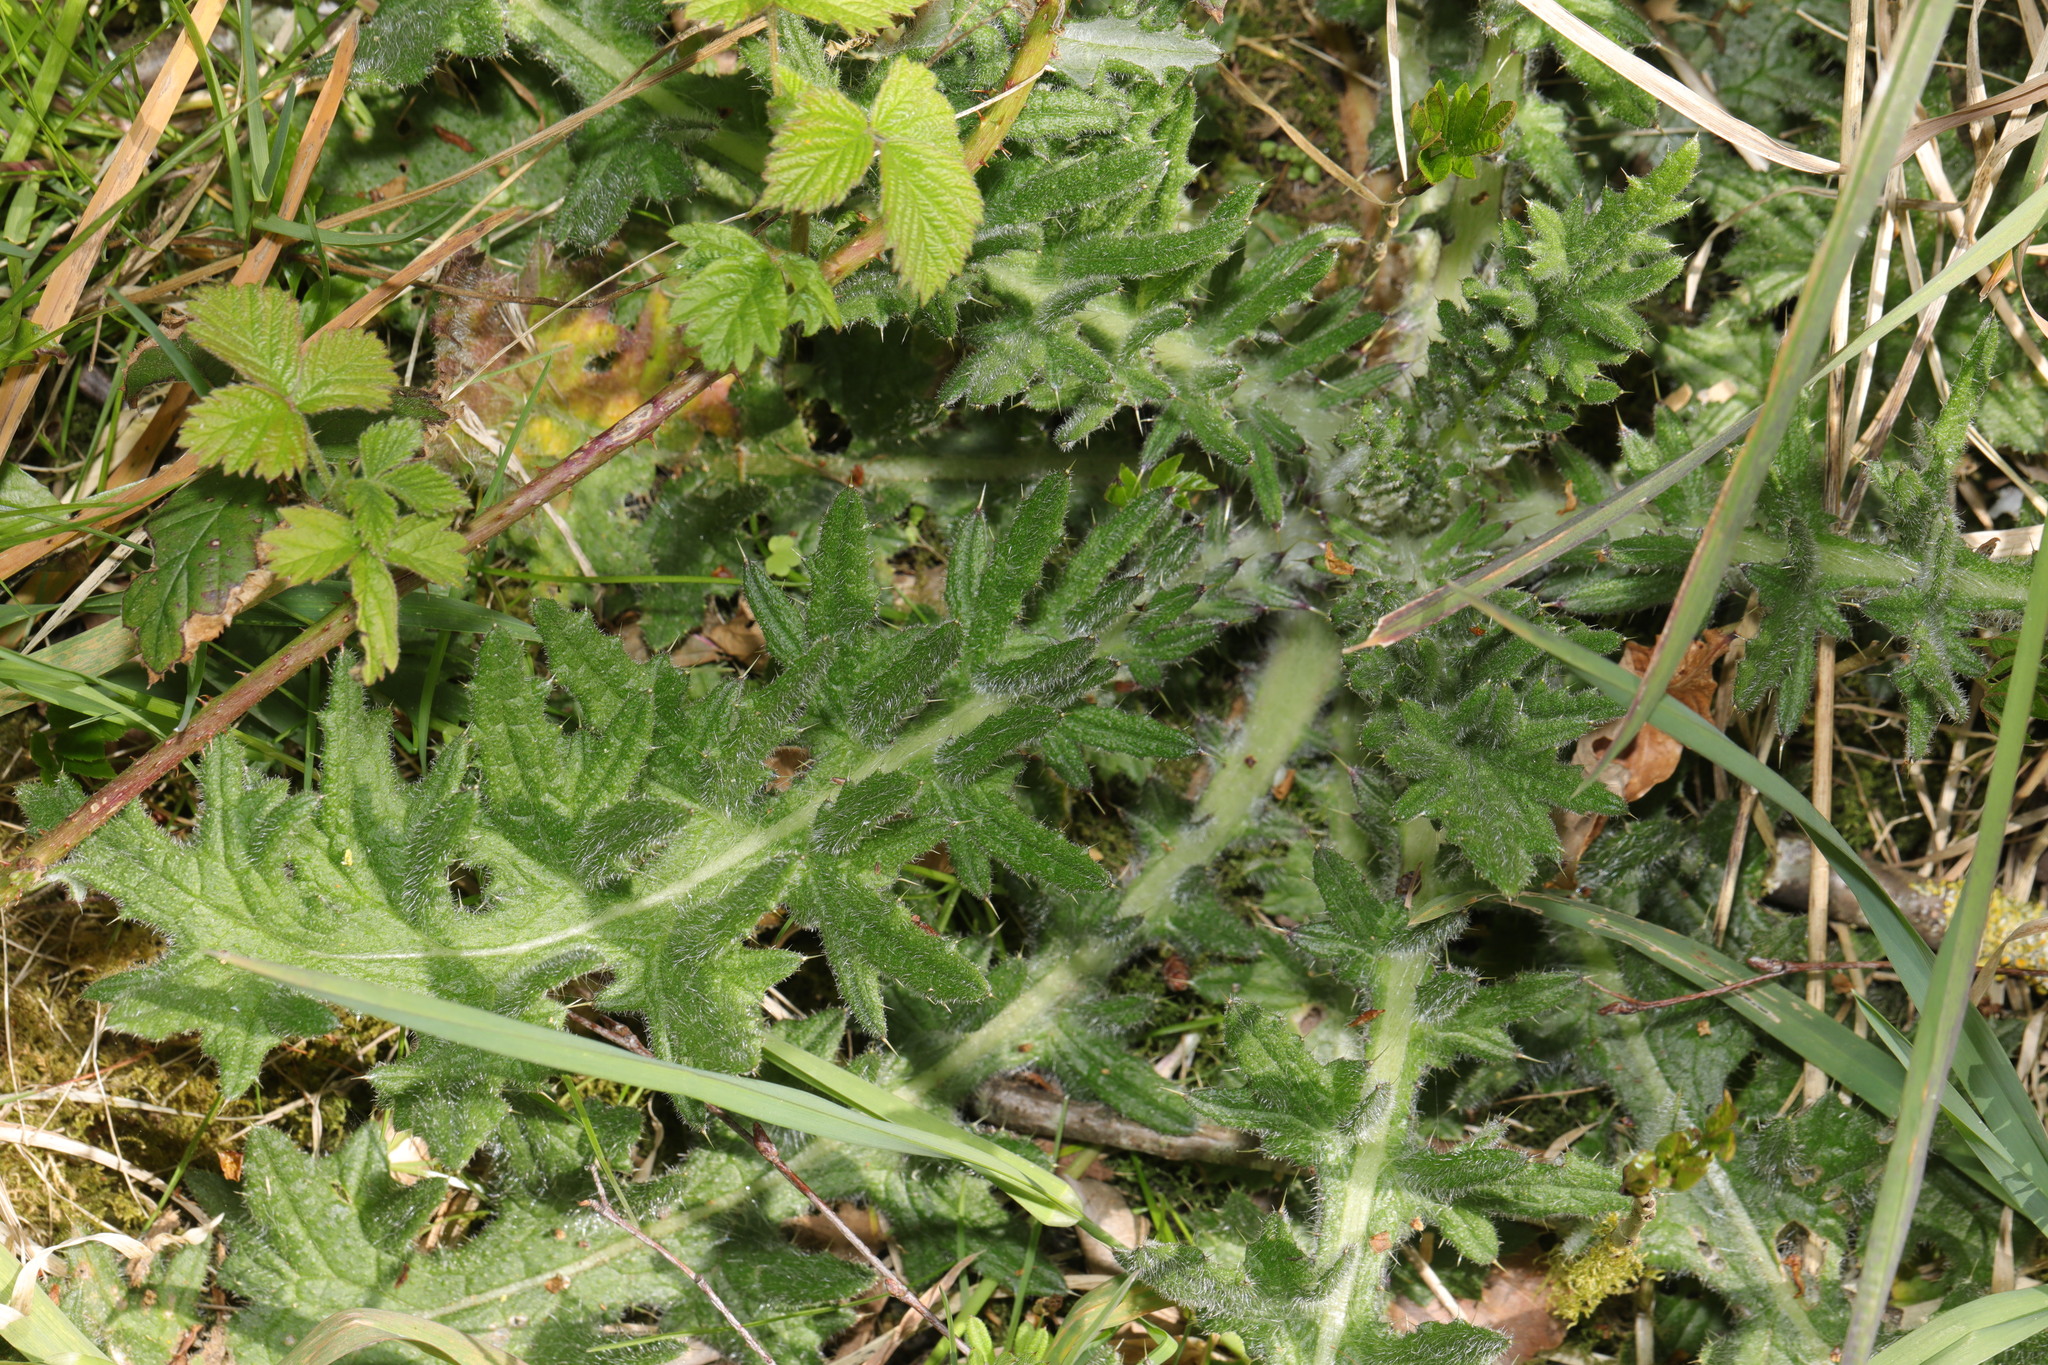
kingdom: Plantae
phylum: Tracheophyta
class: Magnoliopsida
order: Asterales
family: Asteraceae
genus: Cirsium
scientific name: Cirsium vulgare
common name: Bull thistle
